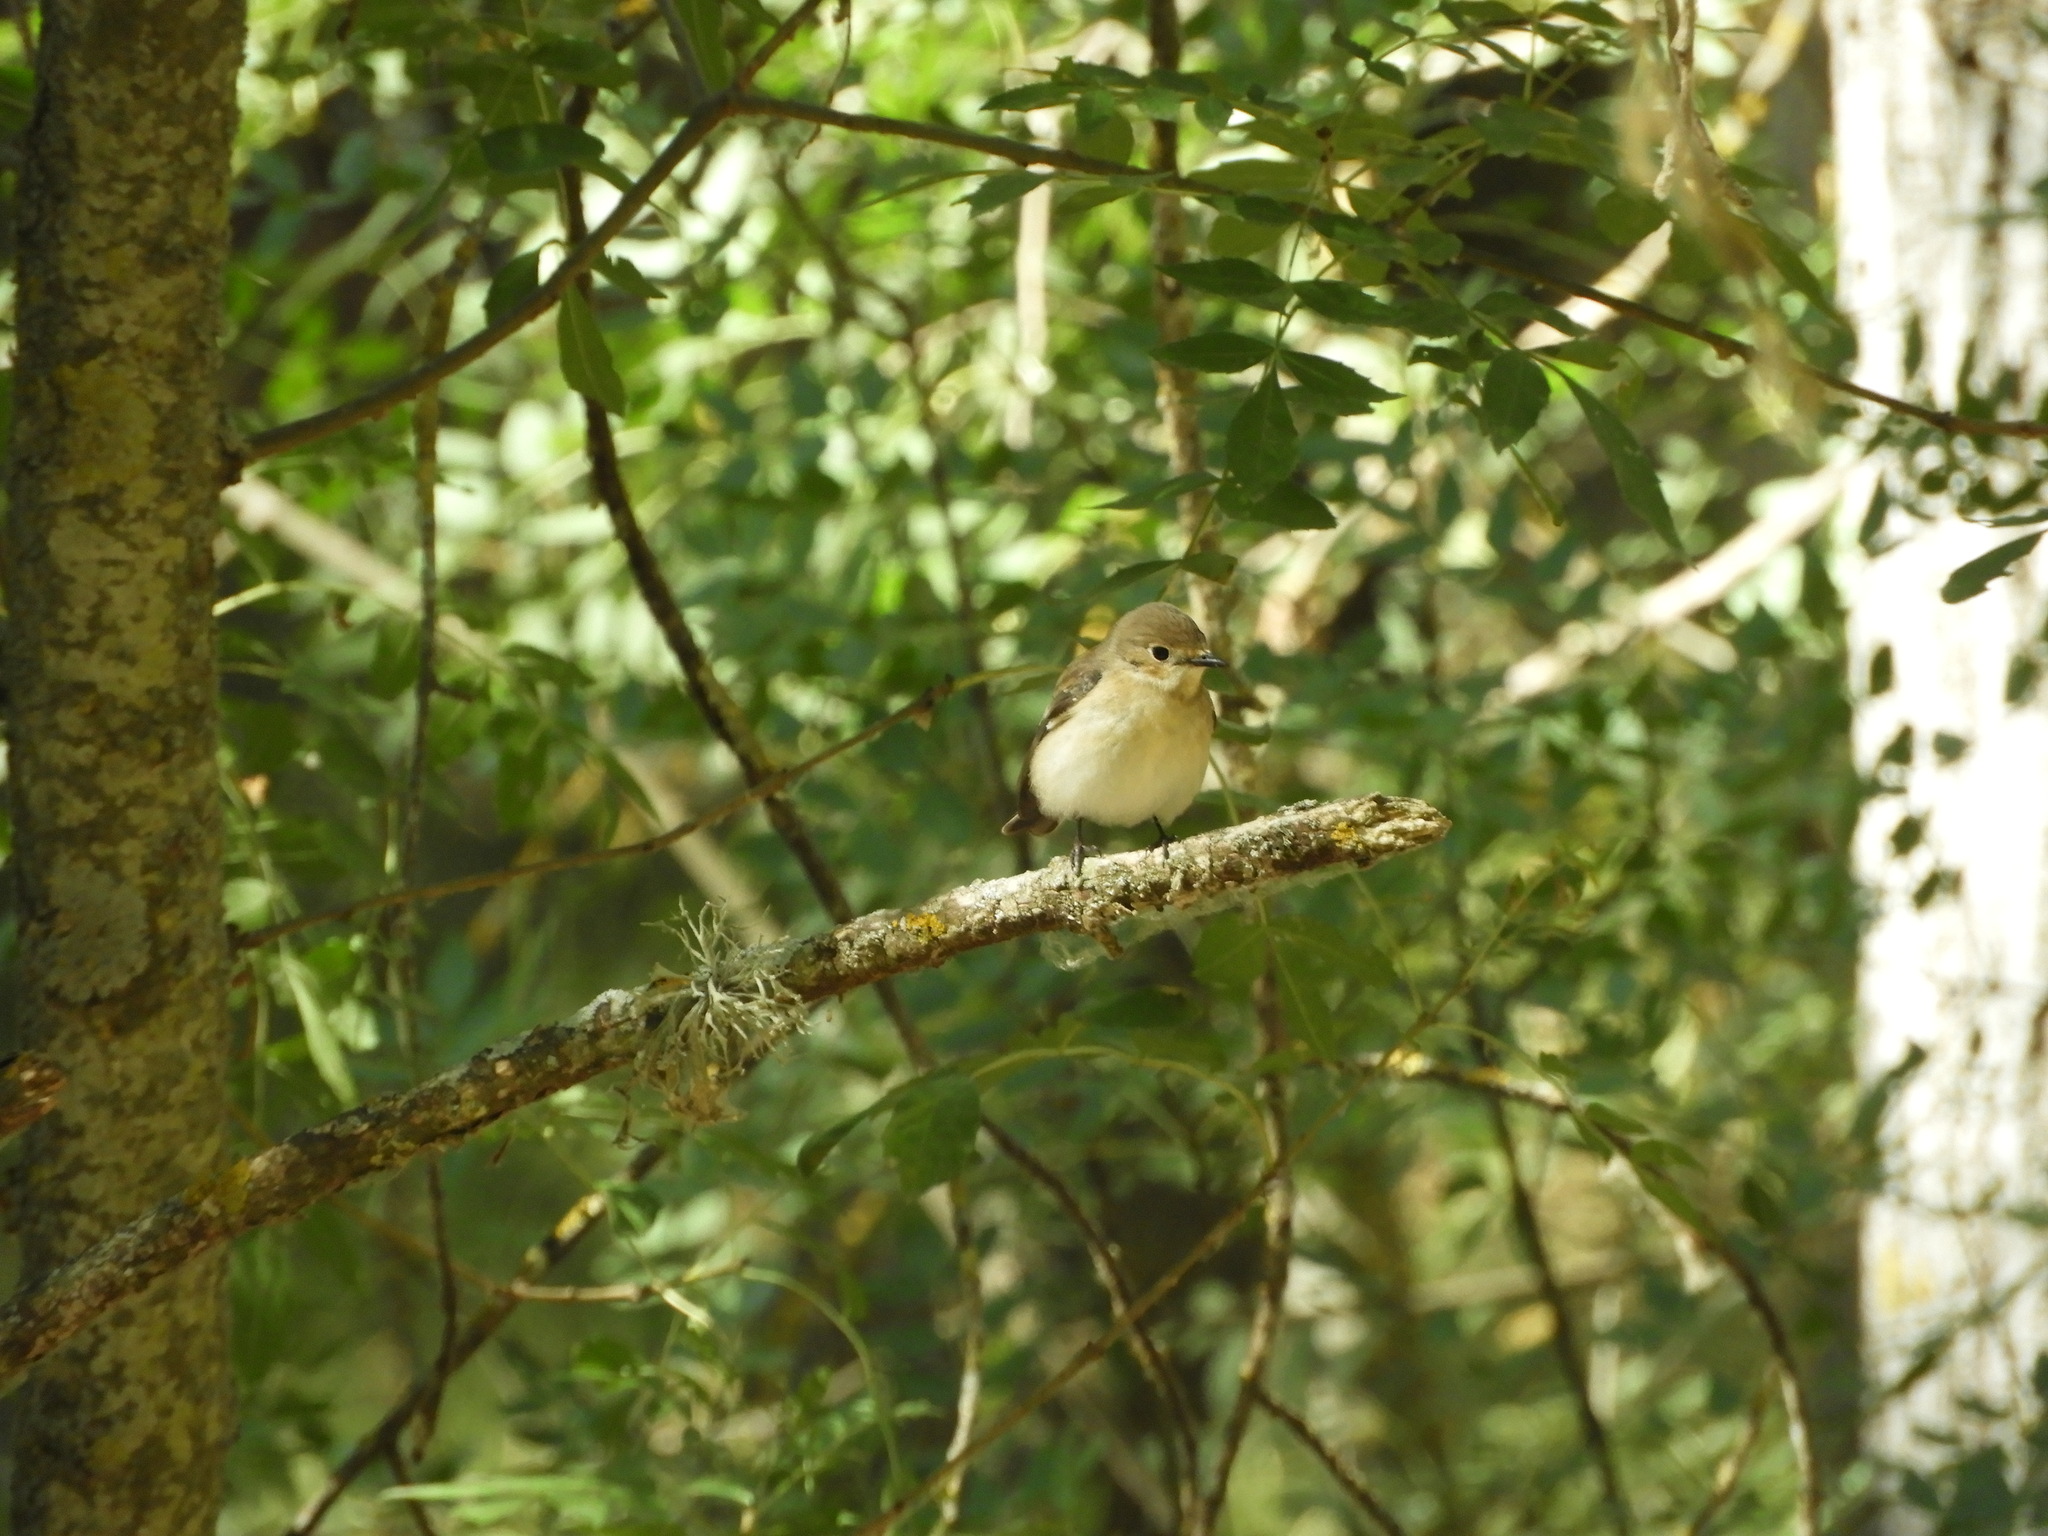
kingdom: Animalia
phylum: Chordata
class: Aves
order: Passeriformes
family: Muscicapidae
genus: Ficedula
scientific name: Ficedula hypoleuca
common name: European pied flycatcher
